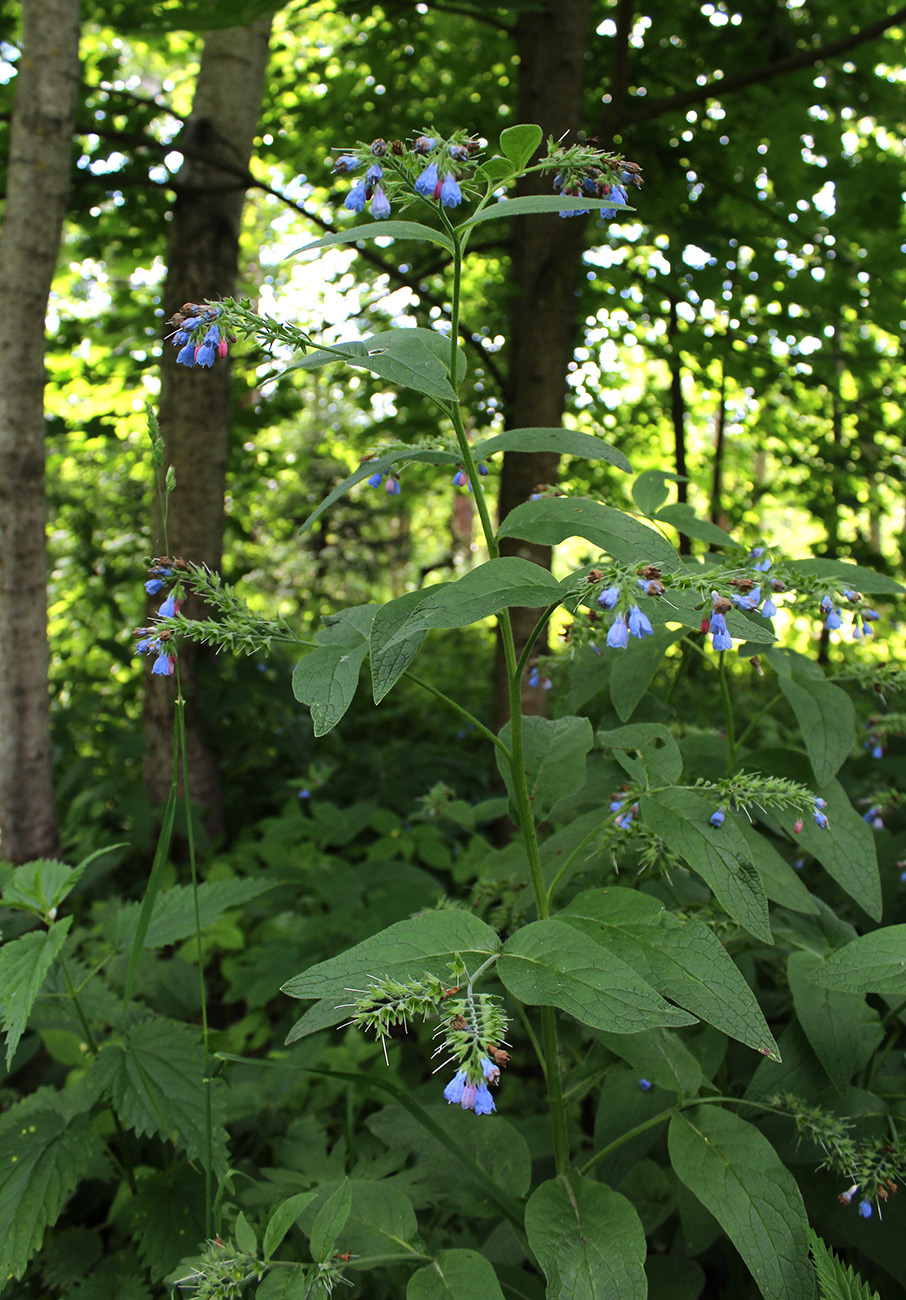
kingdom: Plantae
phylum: Tracheophyta
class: Magnoliopsida
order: Boraginales
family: Boraginaceae
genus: Symphytum
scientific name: Symphytum caucasicum
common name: Caucasian comfrey
